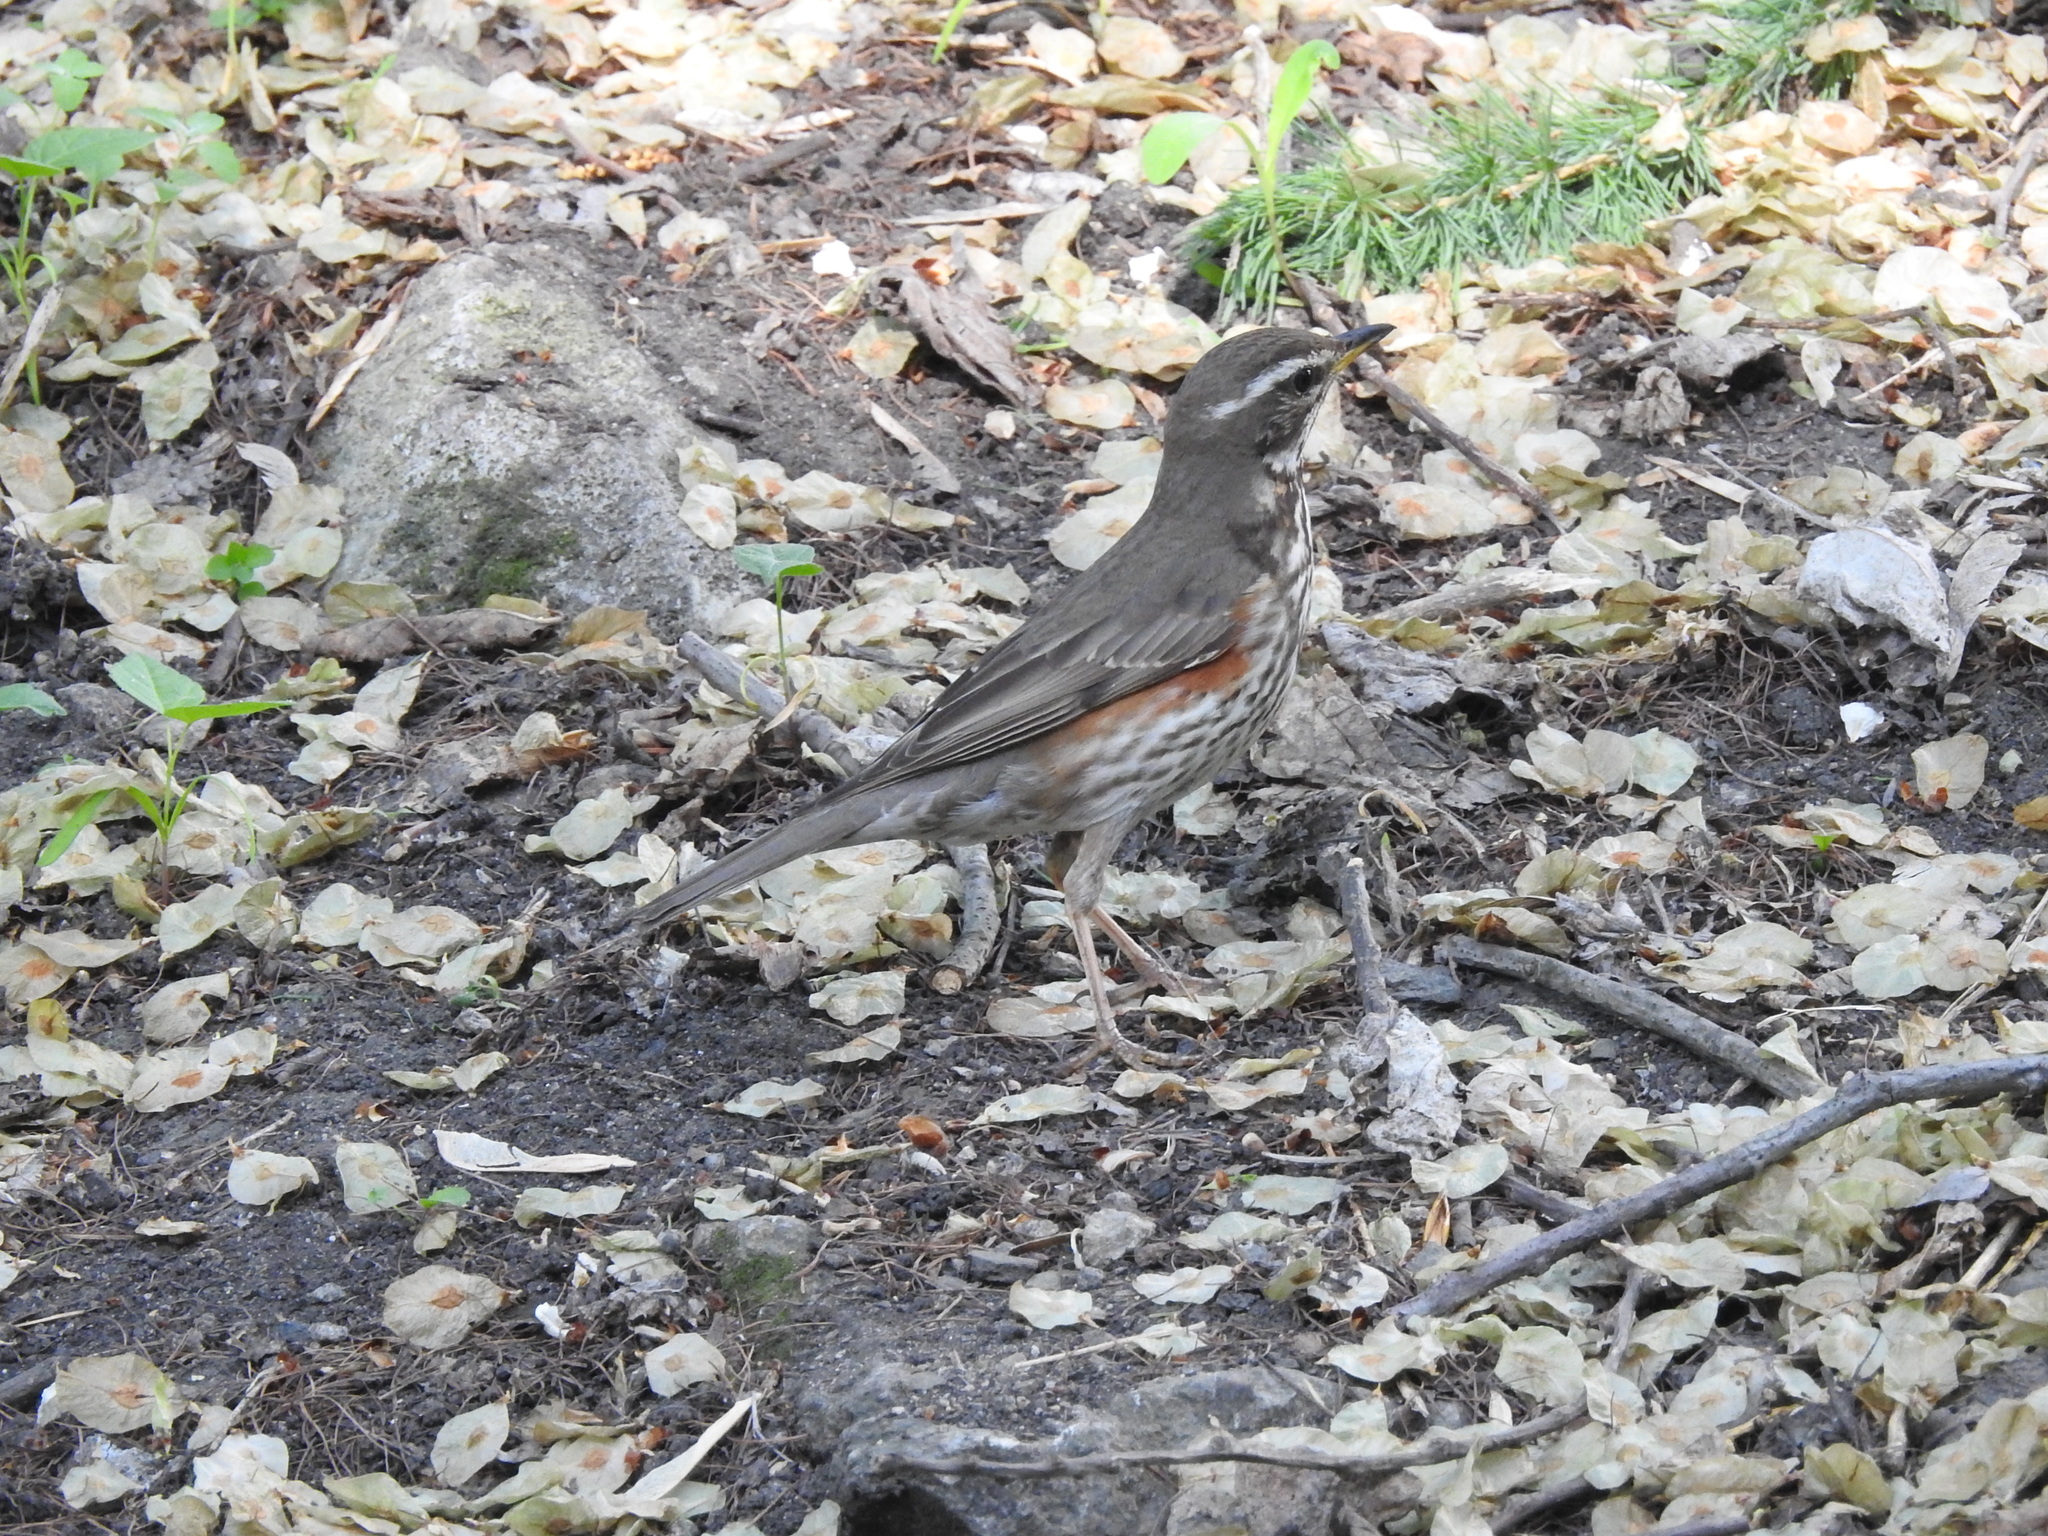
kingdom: Animalia
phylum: Chordata
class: Aves
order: Passeriformes
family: Turdidae
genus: Turdus
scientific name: Turdus iliacus
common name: Redwing
